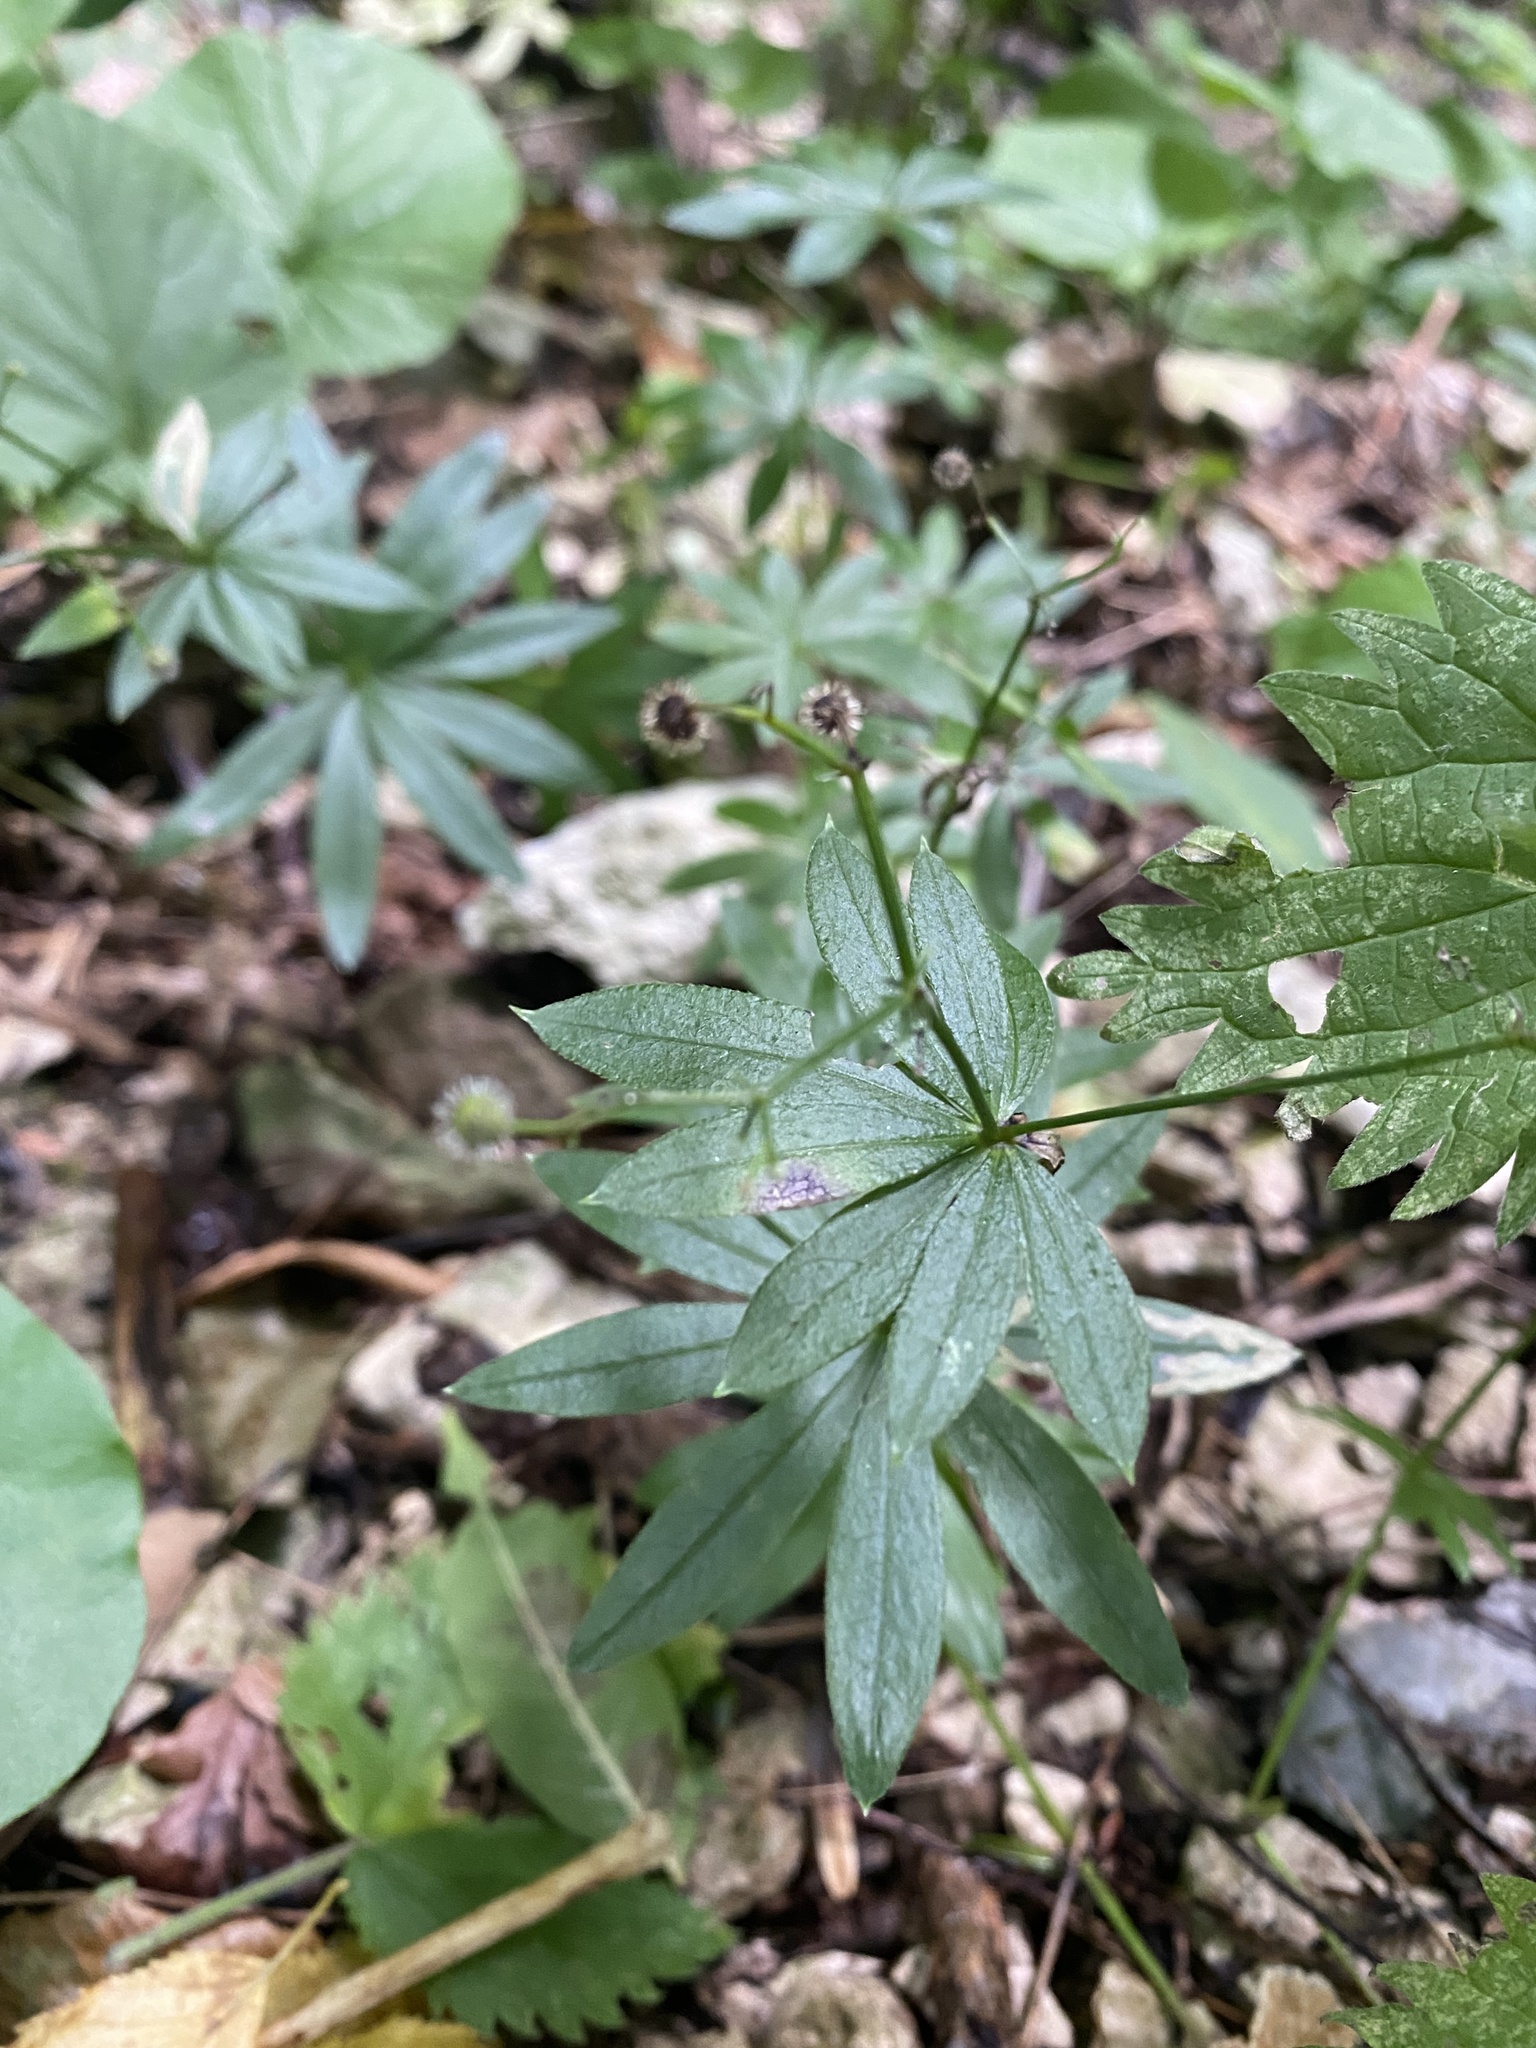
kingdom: Plantae
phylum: Tracheophyta
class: Magnoliopsida
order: Gentianales
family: Rubiaceae
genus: Galium
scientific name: Galium odoratum
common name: Sweet woodruff
